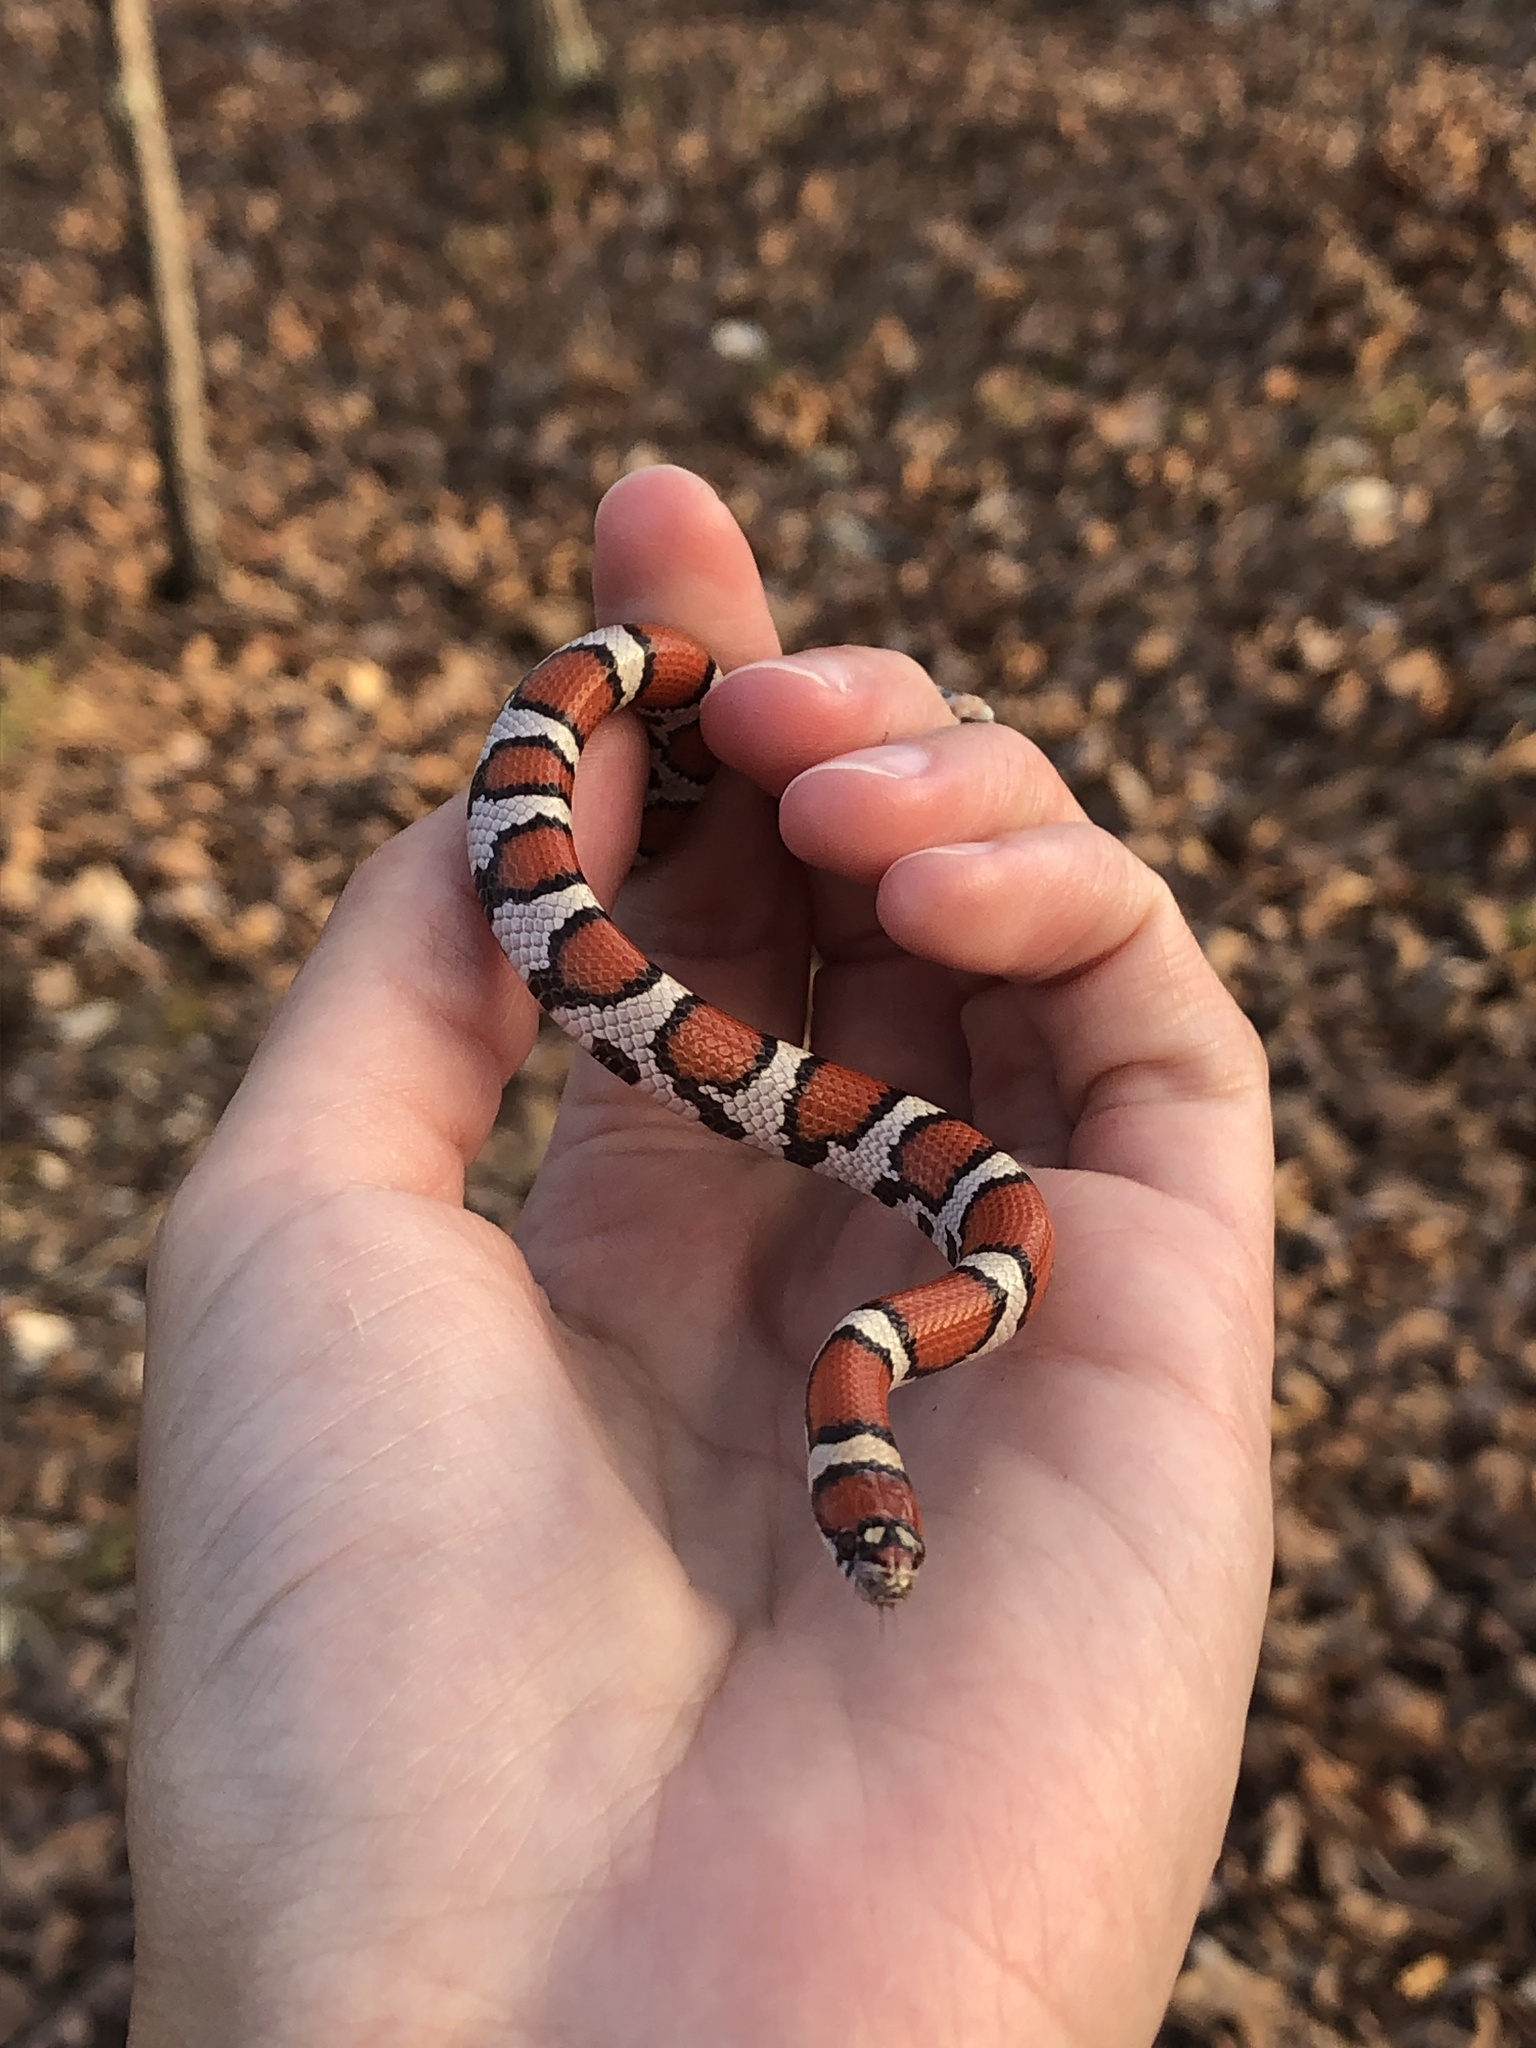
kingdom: Animalia
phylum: Chordata
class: Squamata
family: Colubridae
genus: Lampropeltis
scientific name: Lampropeltis triangulum
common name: Eastern milksnake
